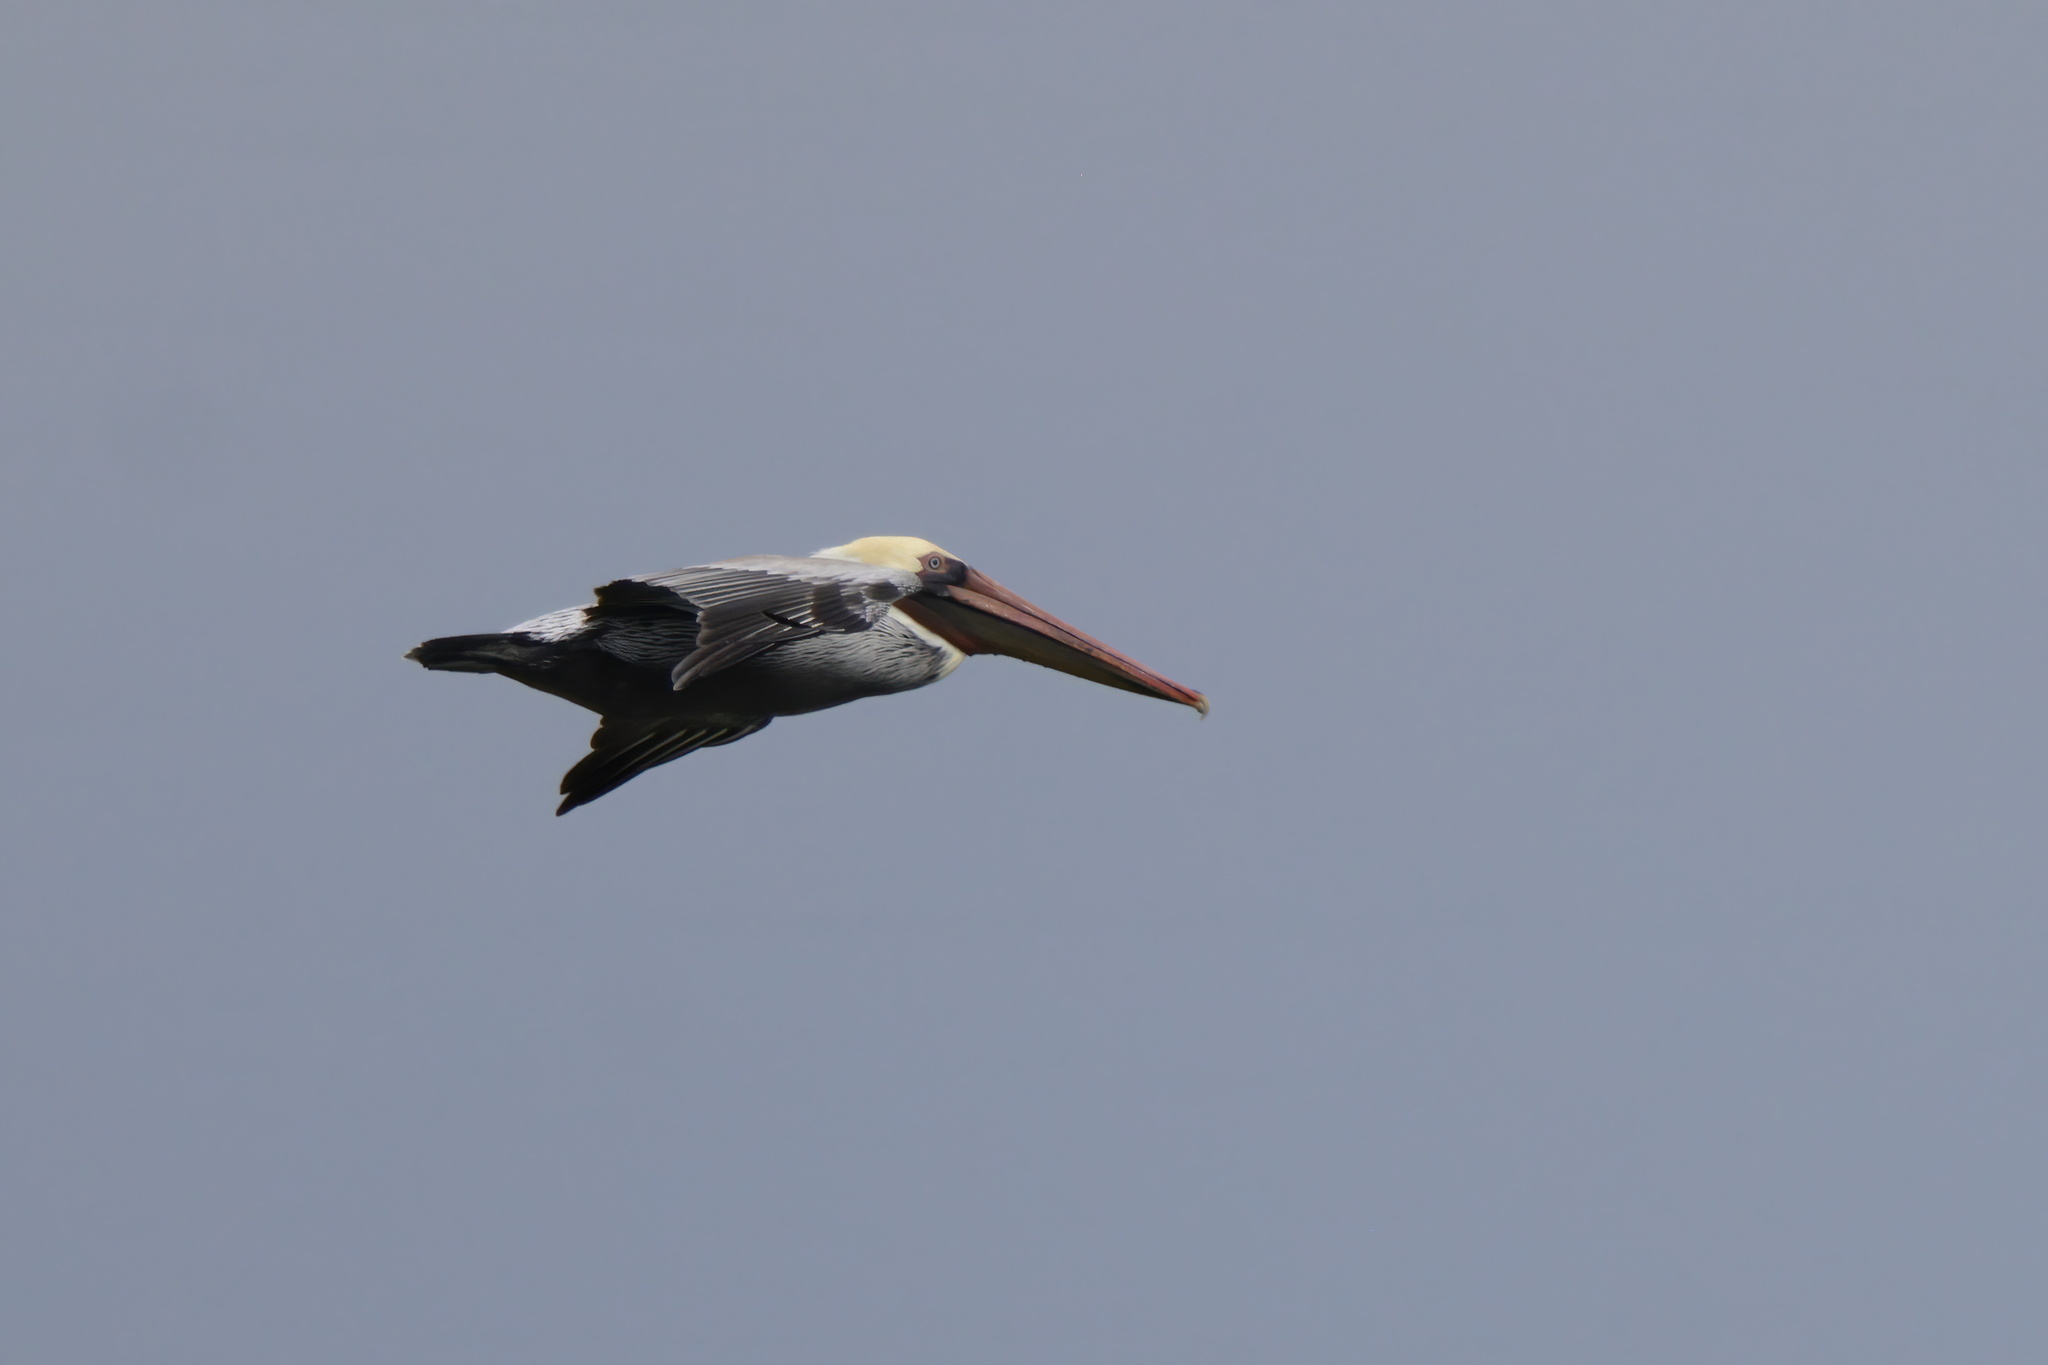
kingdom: Animalia
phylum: Chordata
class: Aves
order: Pelecaniformes
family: Pelecanidae
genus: Pelecanus
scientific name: Pelecanus occidentalis
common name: Brown pelican
